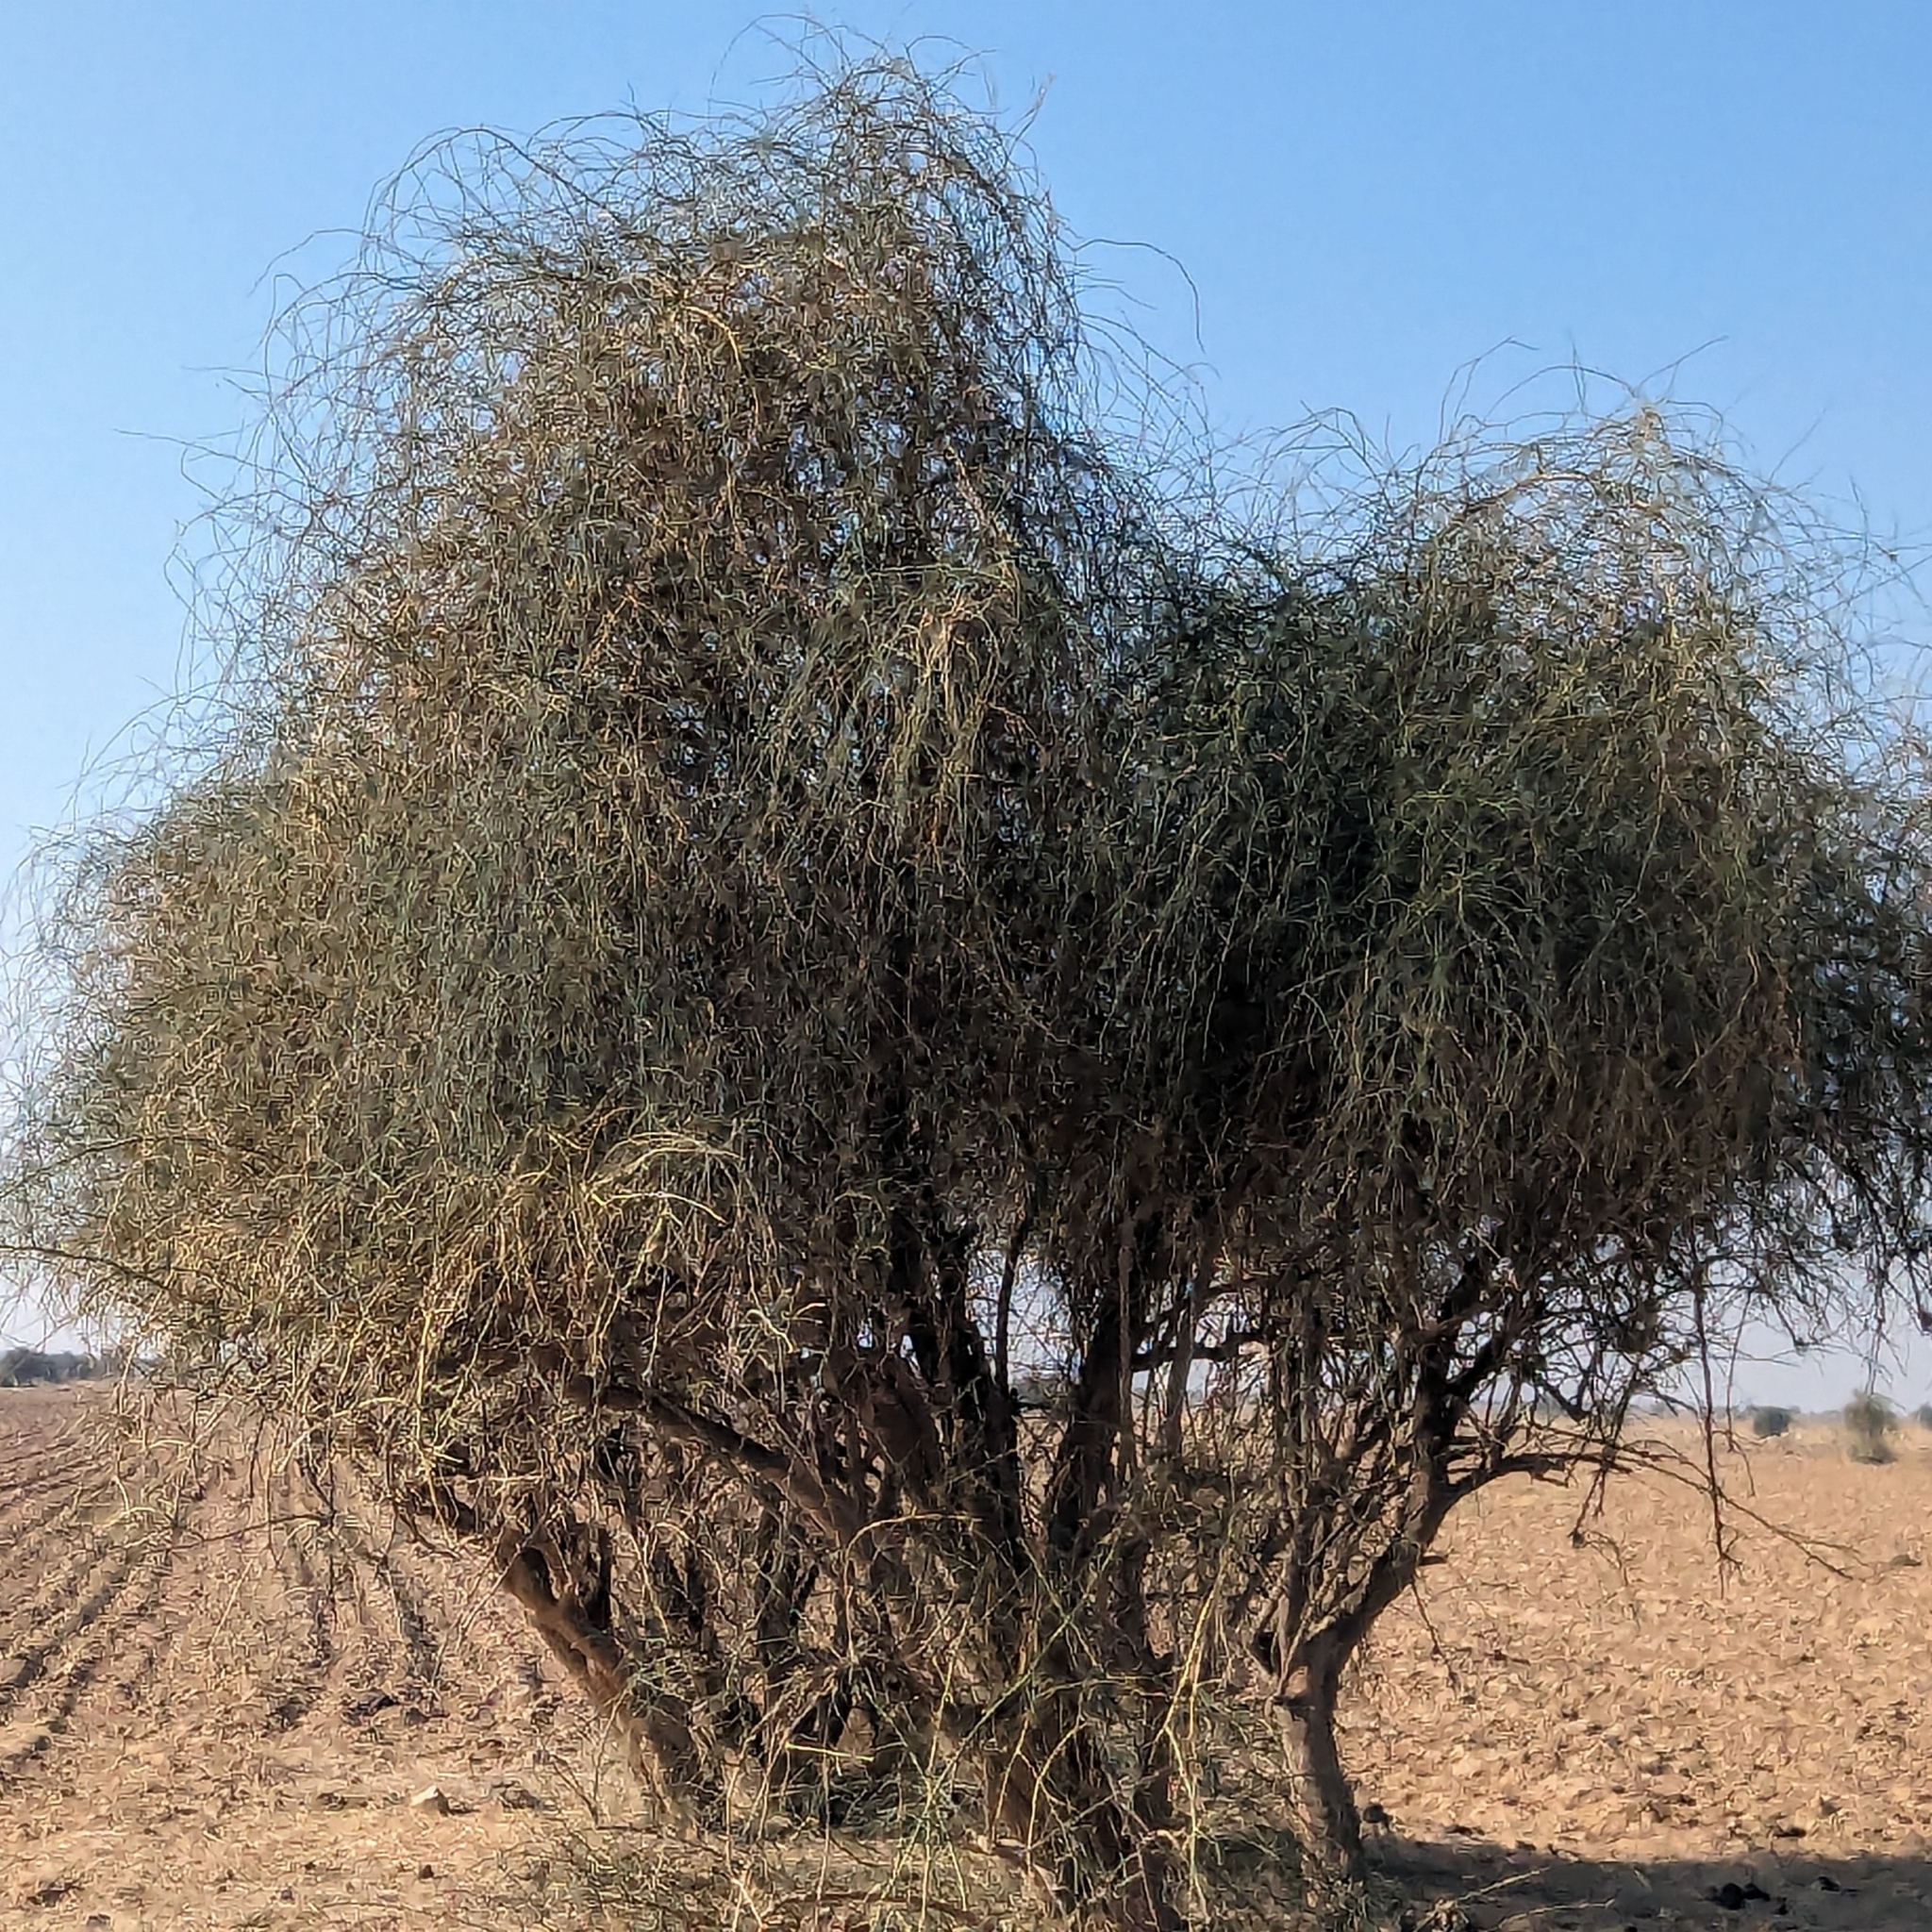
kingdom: Plantae
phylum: Tracheophyta
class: Magnoliopsida
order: Brassicales
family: Capparaceae
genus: Capparis
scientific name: Capparis decidua
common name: Sodada
